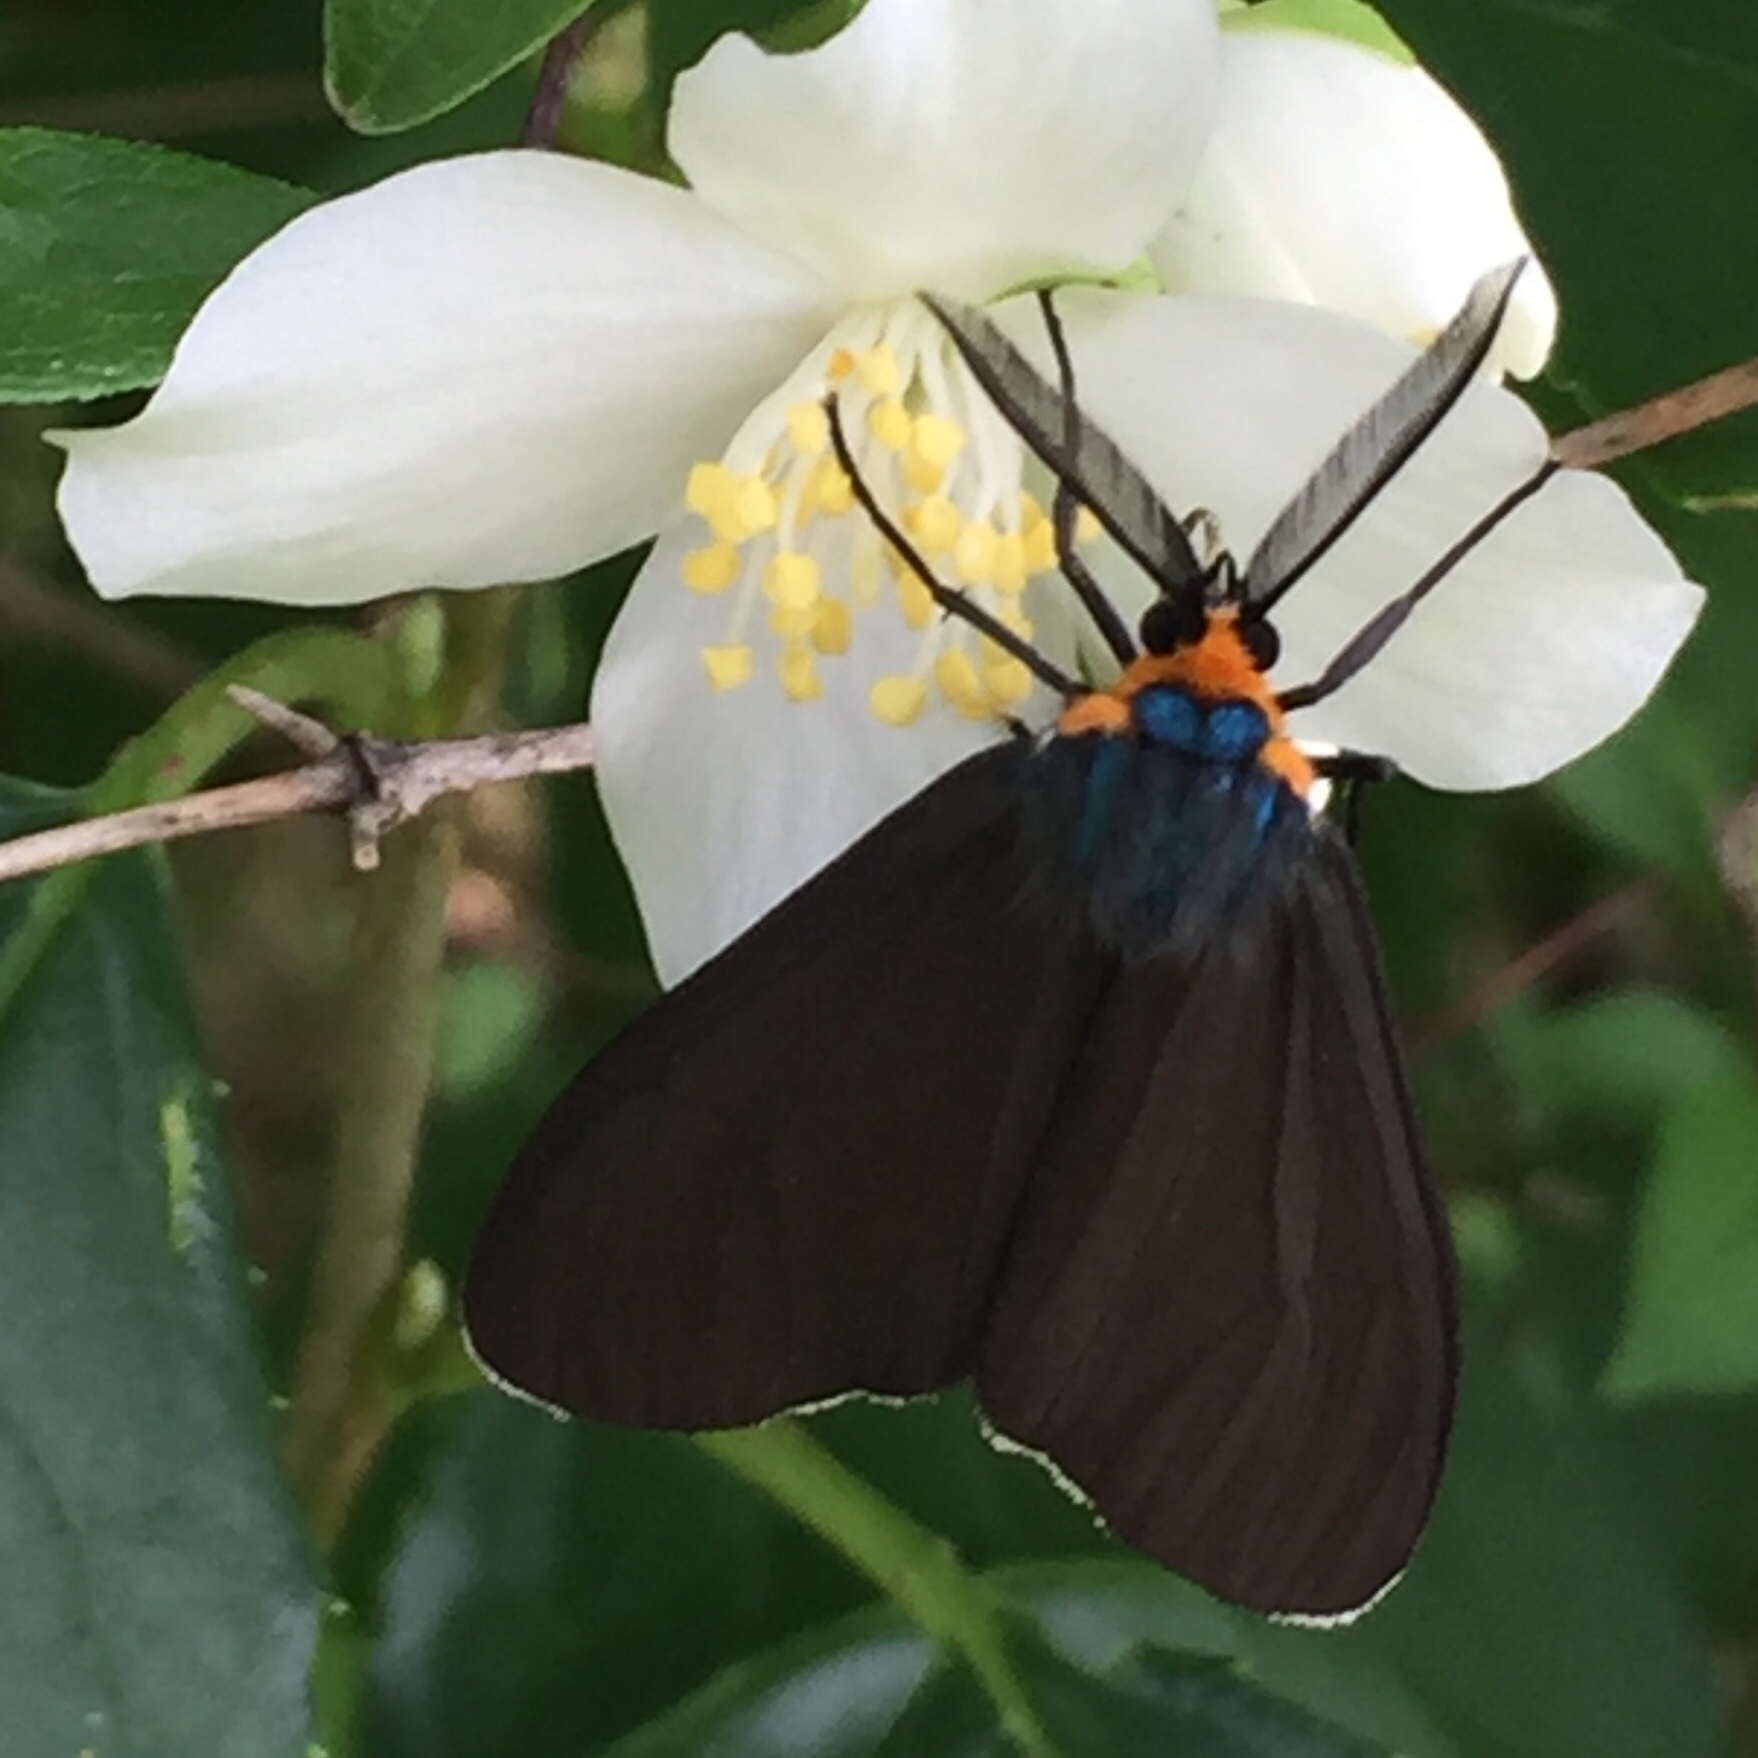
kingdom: Animalia
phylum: Arthropoda
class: Insecta
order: Lepidoptera
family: Erebidae
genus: Ctenucha
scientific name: Ctenucha virginica
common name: Virginia ctenucha moth
